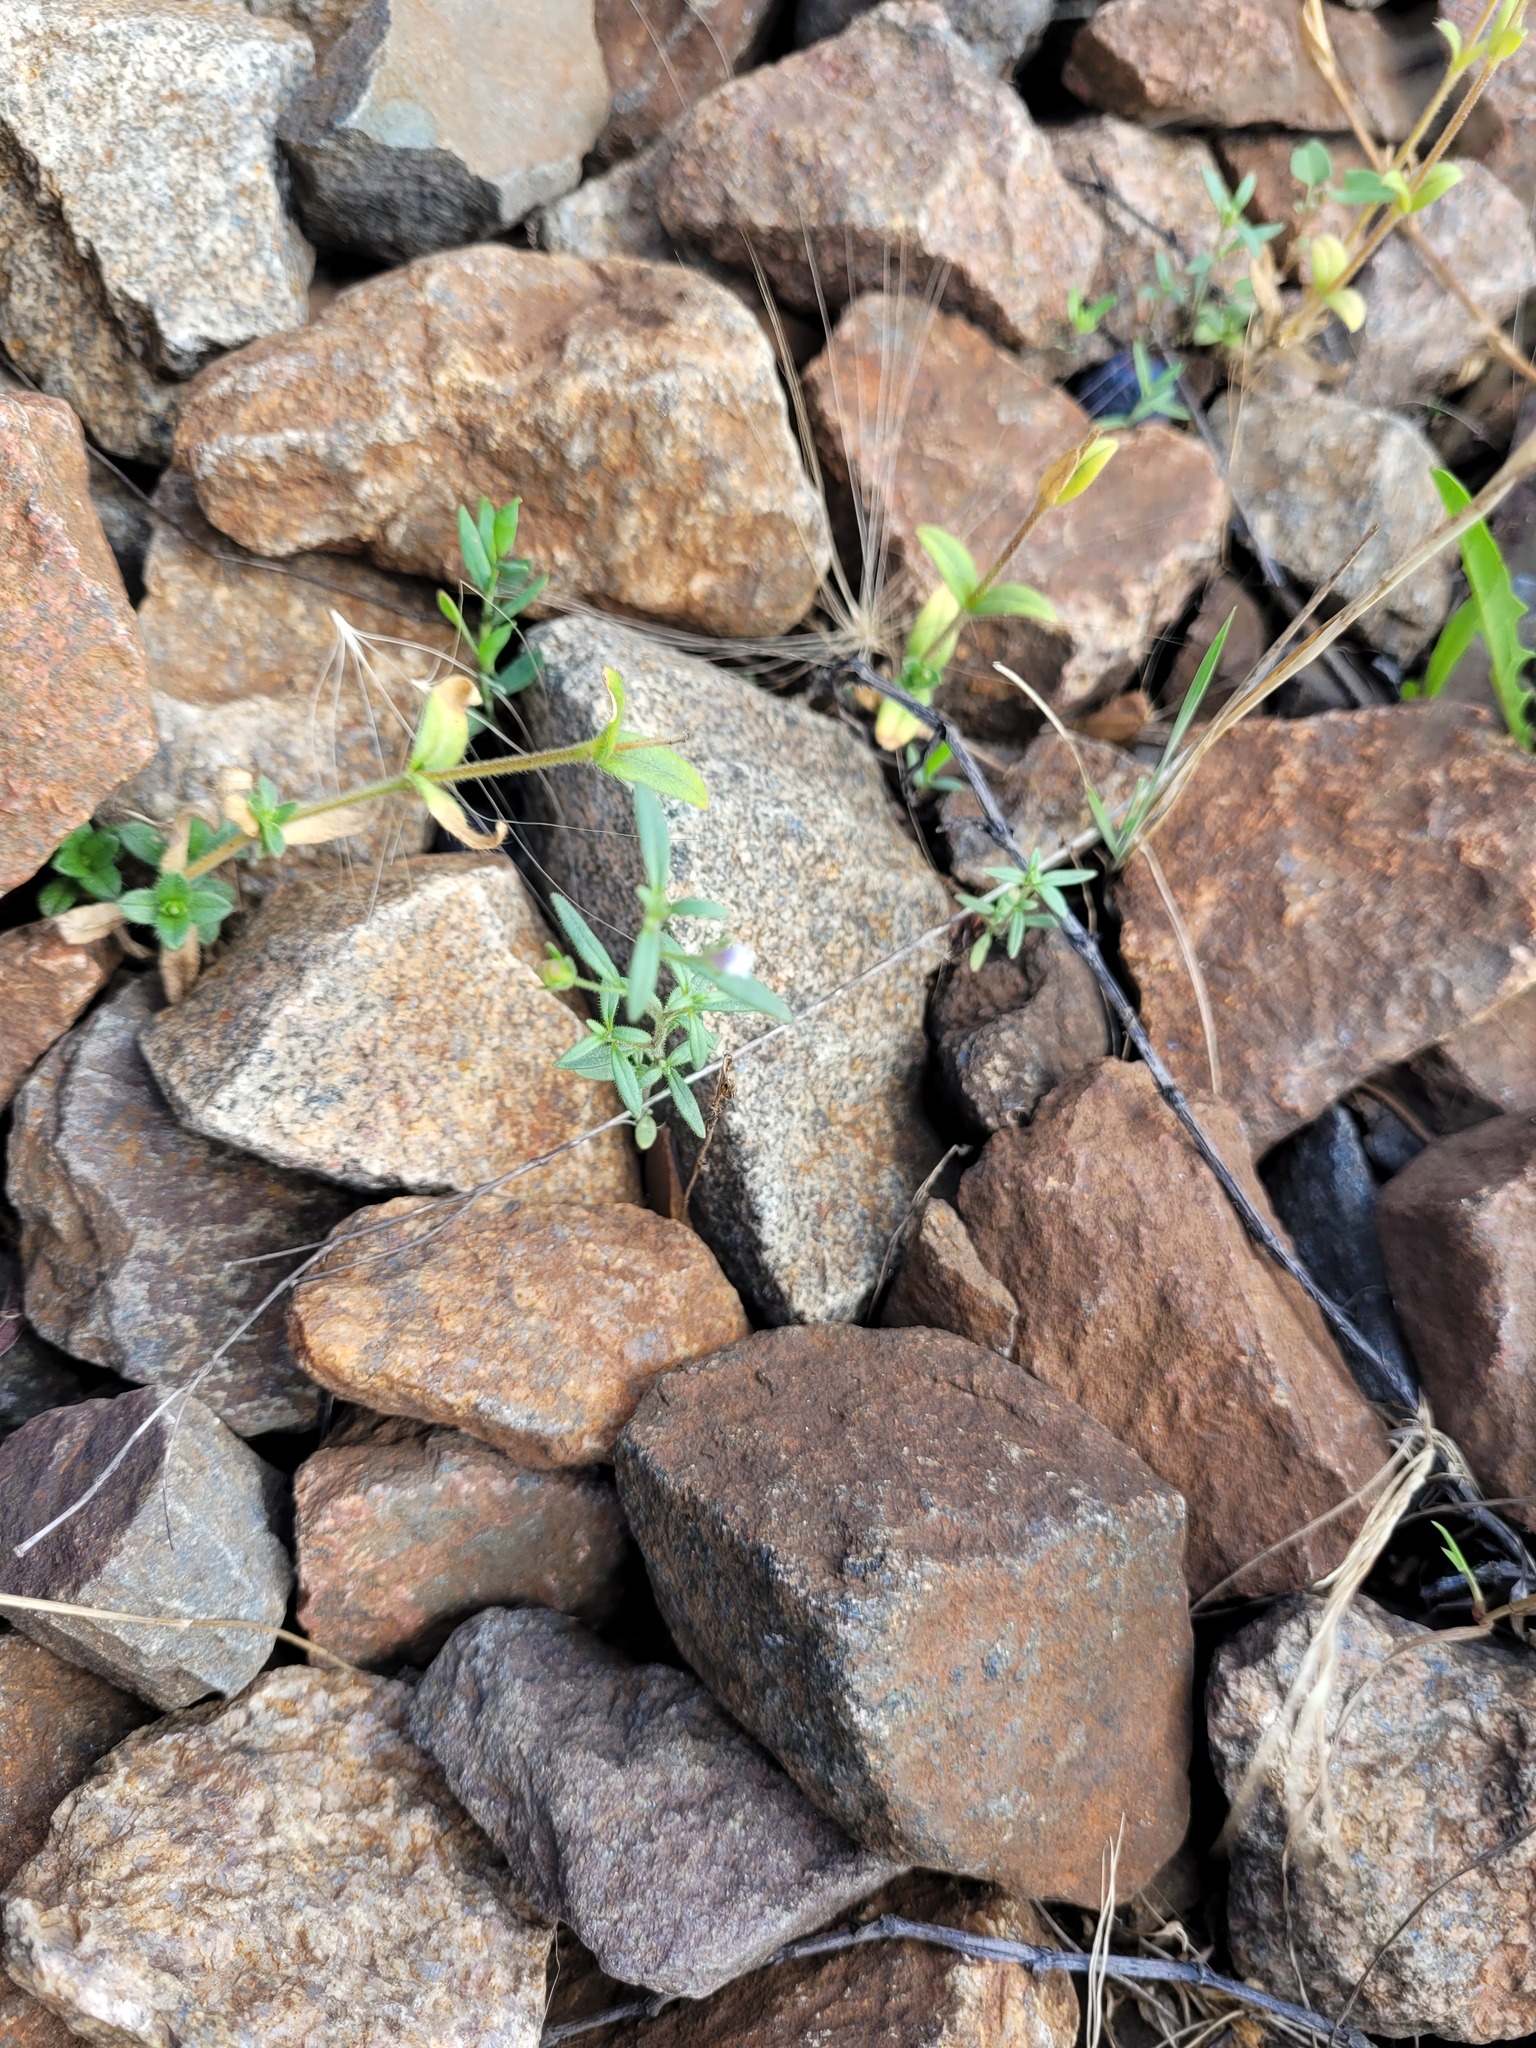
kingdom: Plantae
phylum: Tracheophyta
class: Magnoliopsida
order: Lamiales
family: Plantaginaceae
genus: Chaenorhinum
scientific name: Chaenorhinum minus
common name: Dwarf snapdragon
